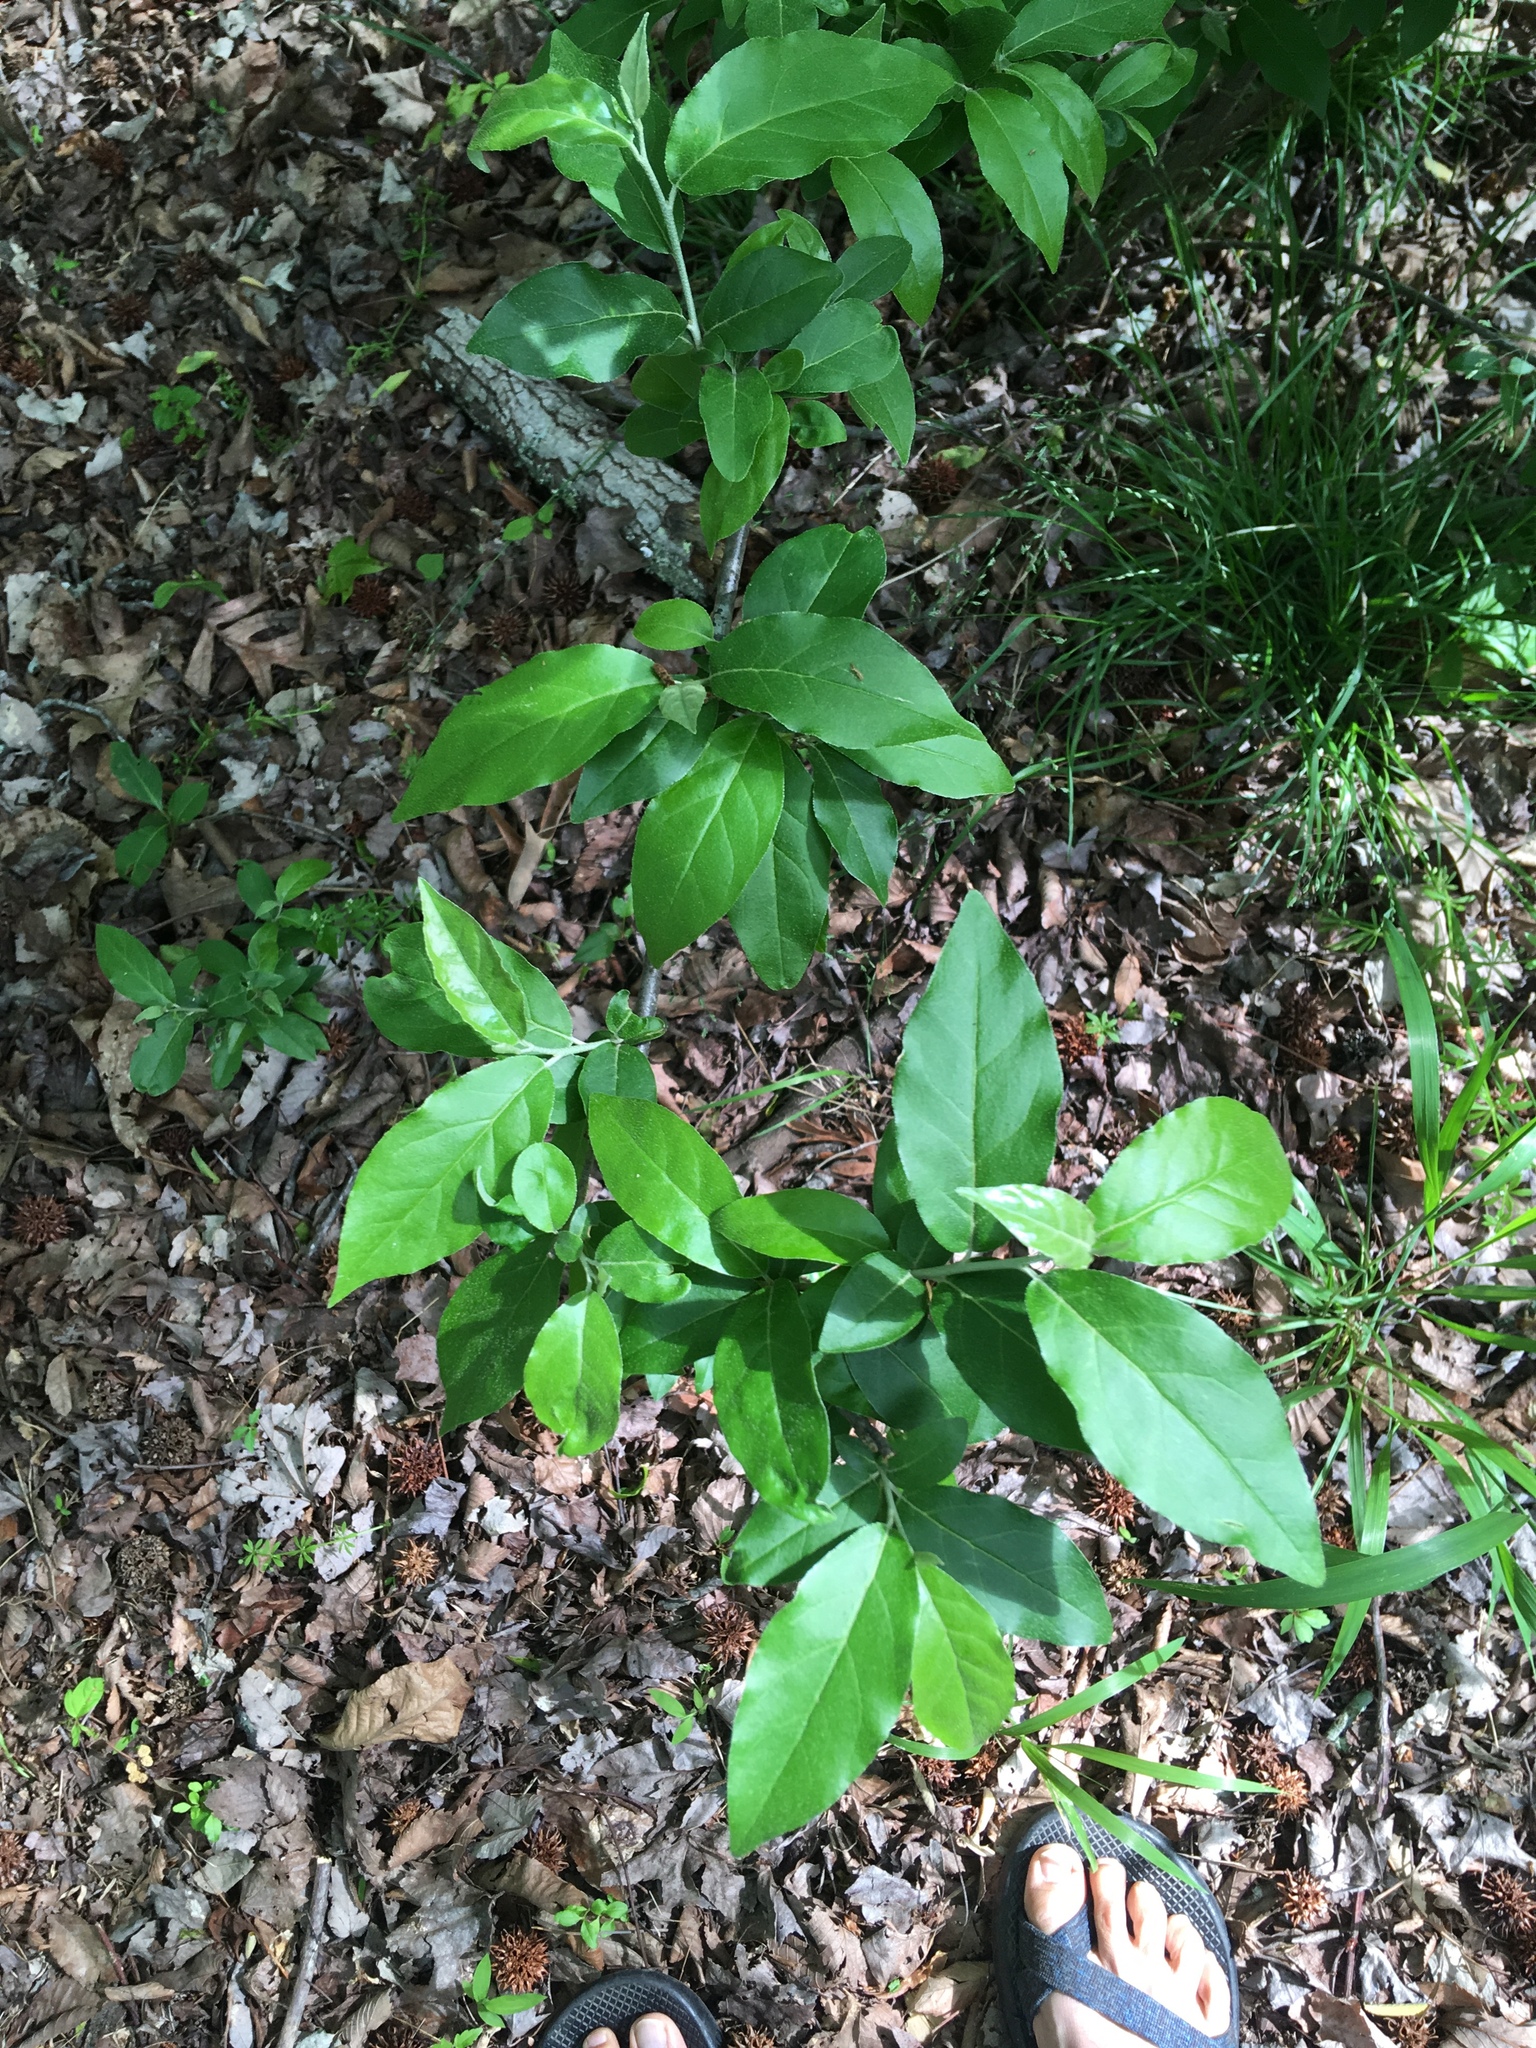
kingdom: Plantae
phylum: Tracheophyta
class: Magnoliopsida
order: Rosales
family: Elaeagnaceae
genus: Elaeagnus
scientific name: Elaeagnus umbellata
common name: Autumn olive
